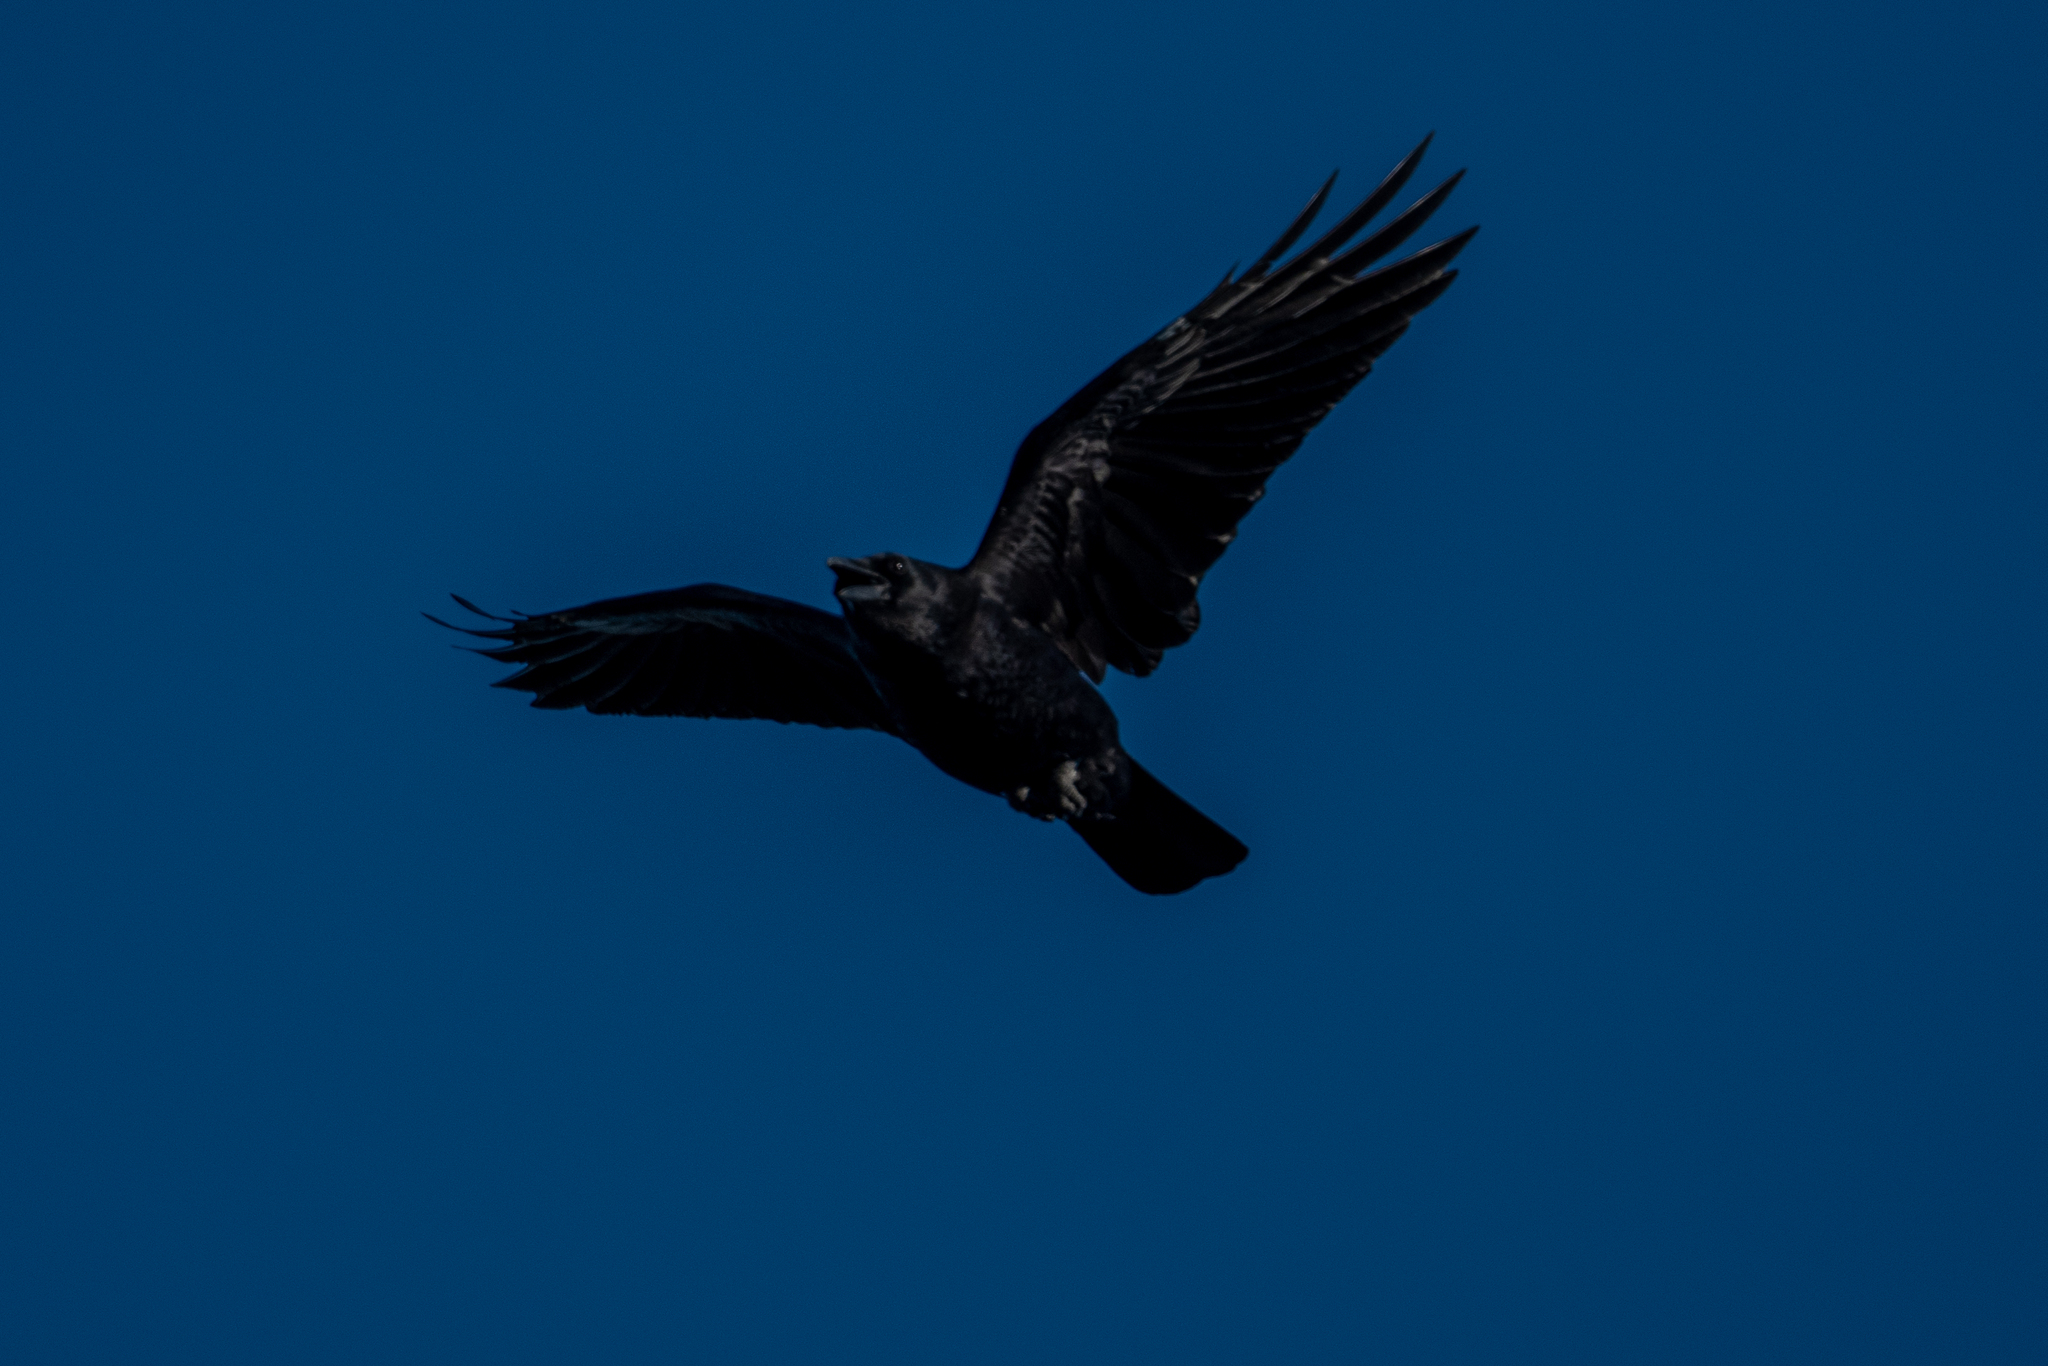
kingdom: Animalia
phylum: Chordata
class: Aves
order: Passeriformes
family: Corvidae
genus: Corvus
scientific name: Corvus brachyrhynchos
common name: American crow
